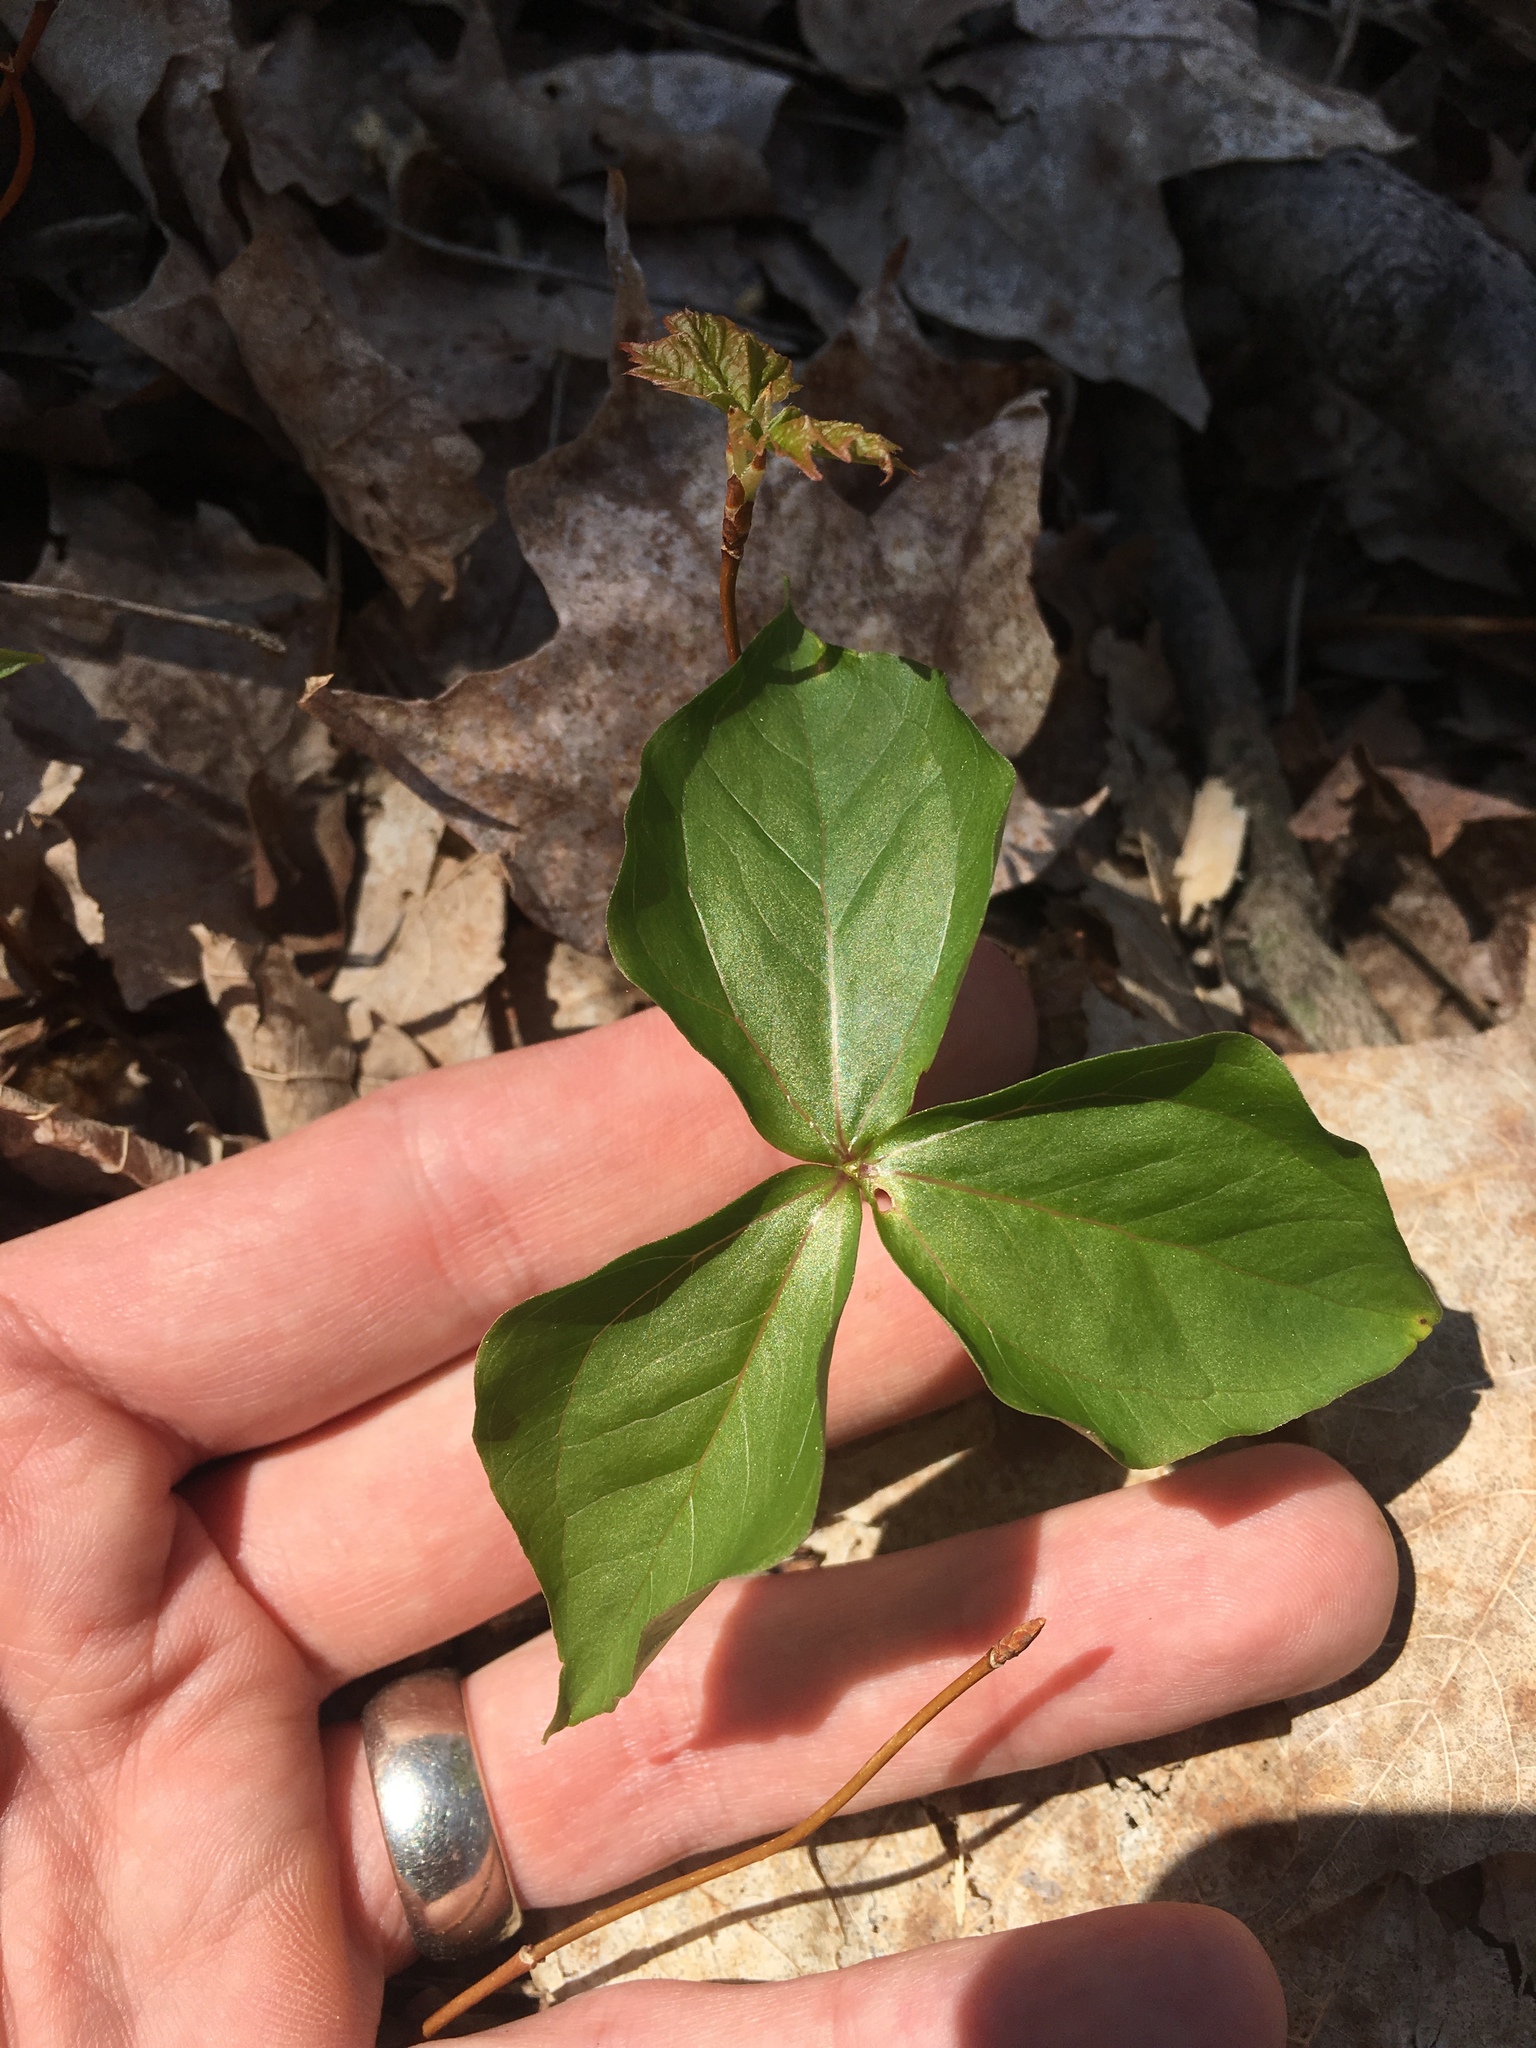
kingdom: Plantae
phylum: Tracheophyta
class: Liliopsida
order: Liliales
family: Melanthiaceae
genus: Trillium
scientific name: Trillium
